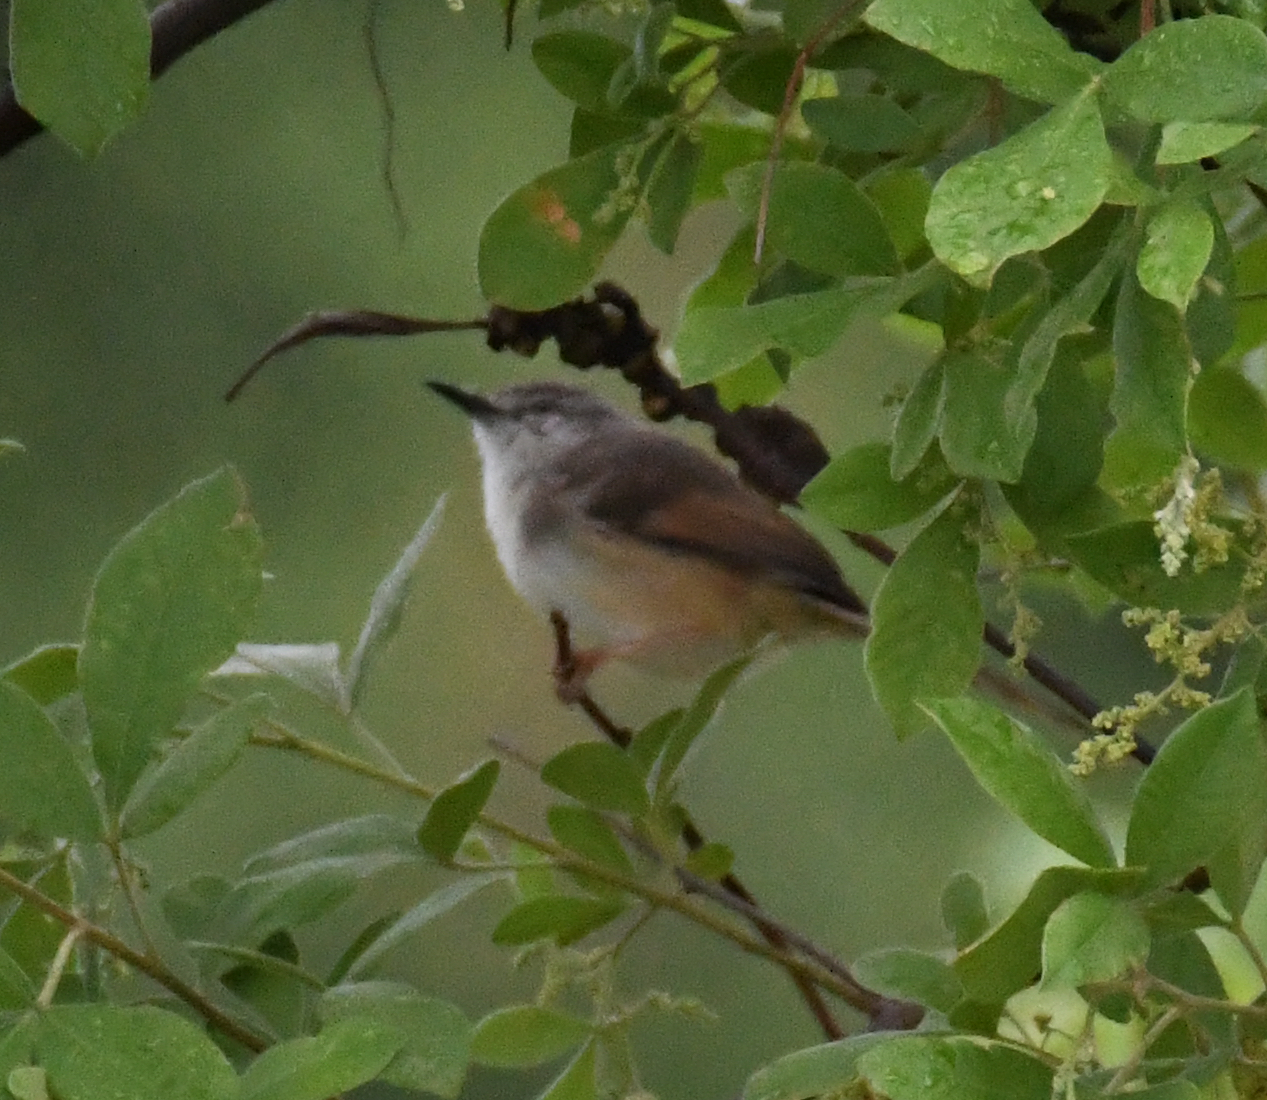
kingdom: Animalia
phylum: Chordata
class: Aves
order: Passeriformes
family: Cisticolidae
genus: Prinia
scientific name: Prinia subflava
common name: Tawny-flanked prinia
